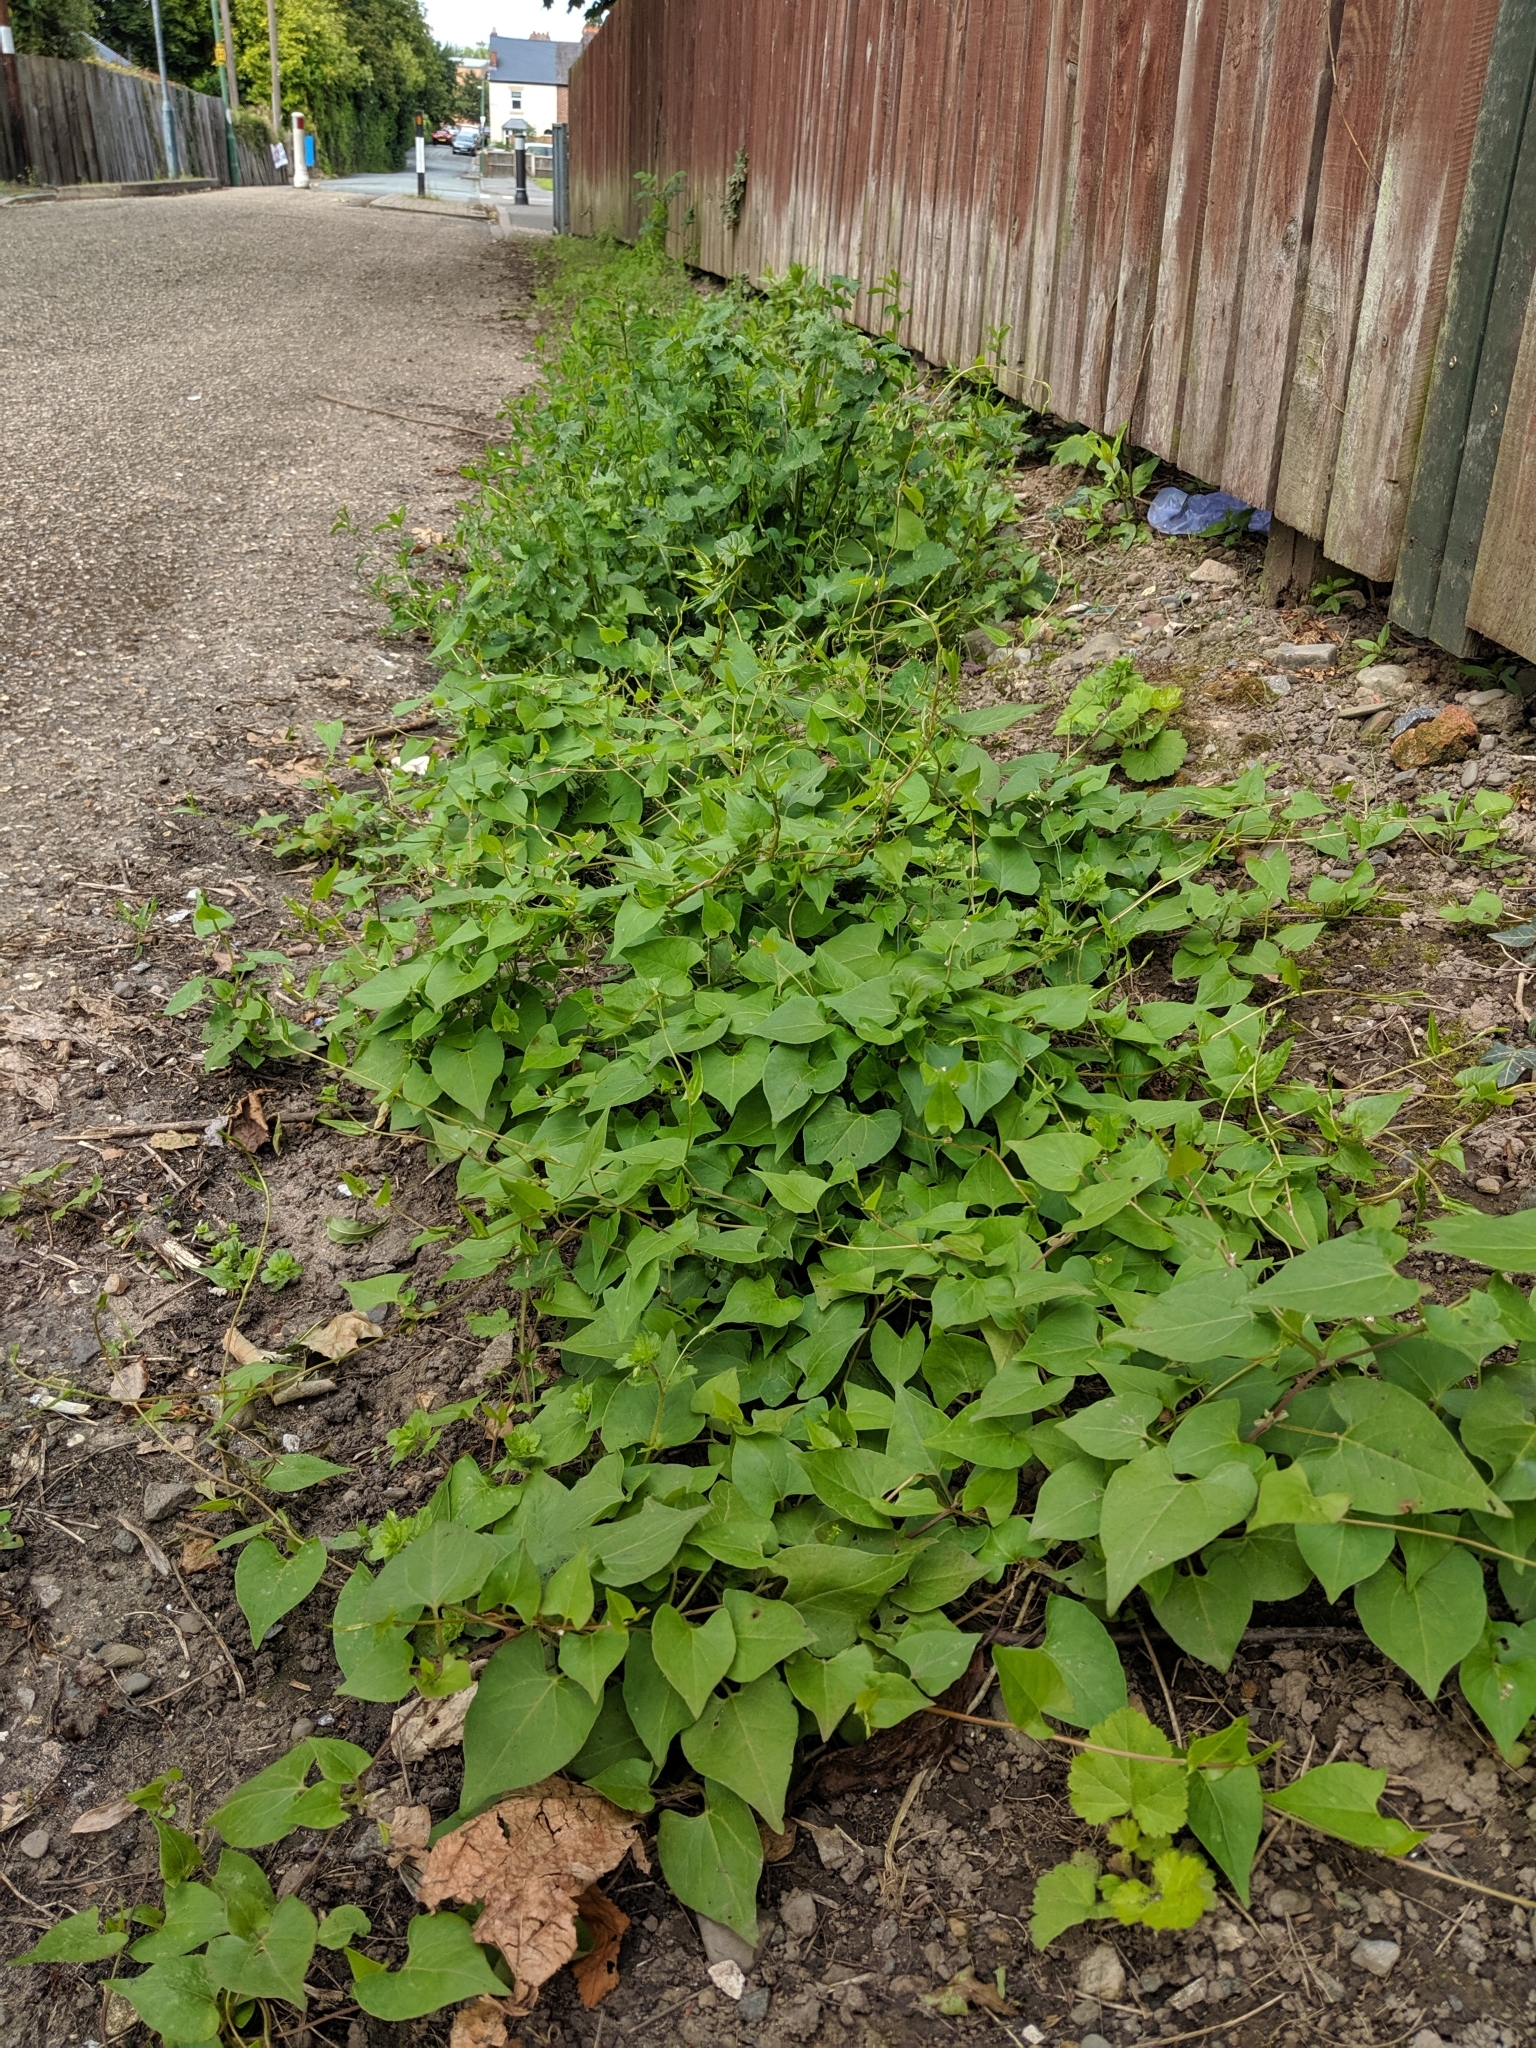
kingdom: Plantae
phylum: Tracheophyta
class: Magnoliopsida
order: Caryophyllales
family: Polygonaceae
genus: Fallopia
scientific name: Fallopia convolvulus
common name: Black bindweed
